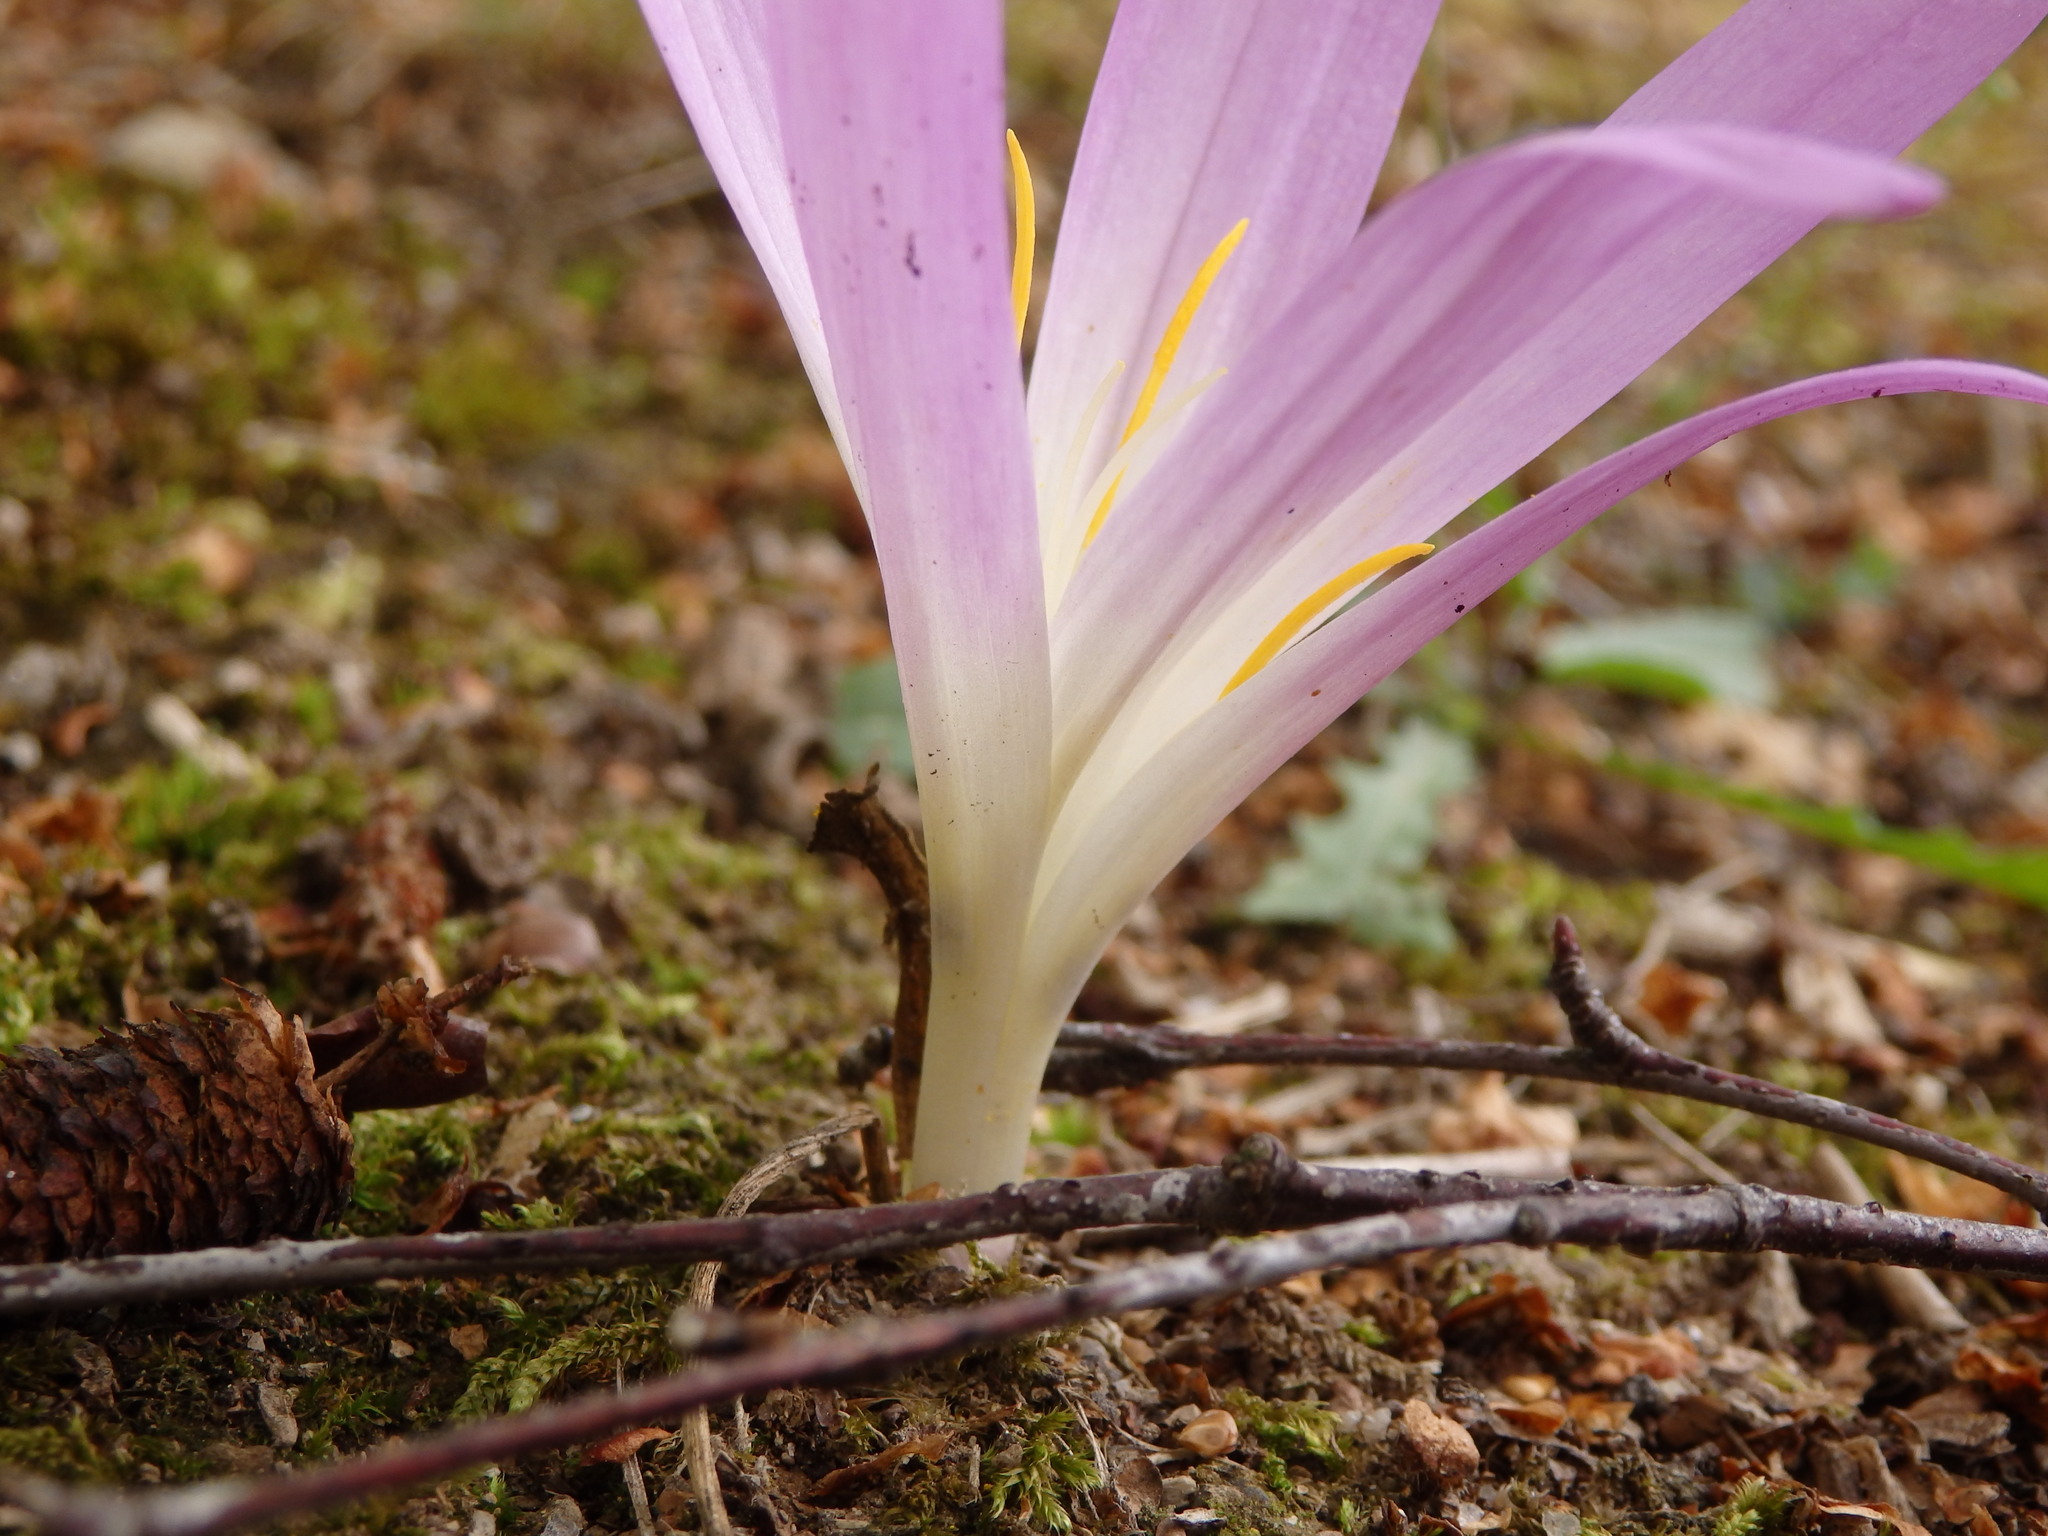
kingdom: Plantae
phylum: Tracheophyta
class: Liliopsida
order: Liliales
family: Colchicaceae
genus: Colchicum
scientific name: Colchicum montanum
